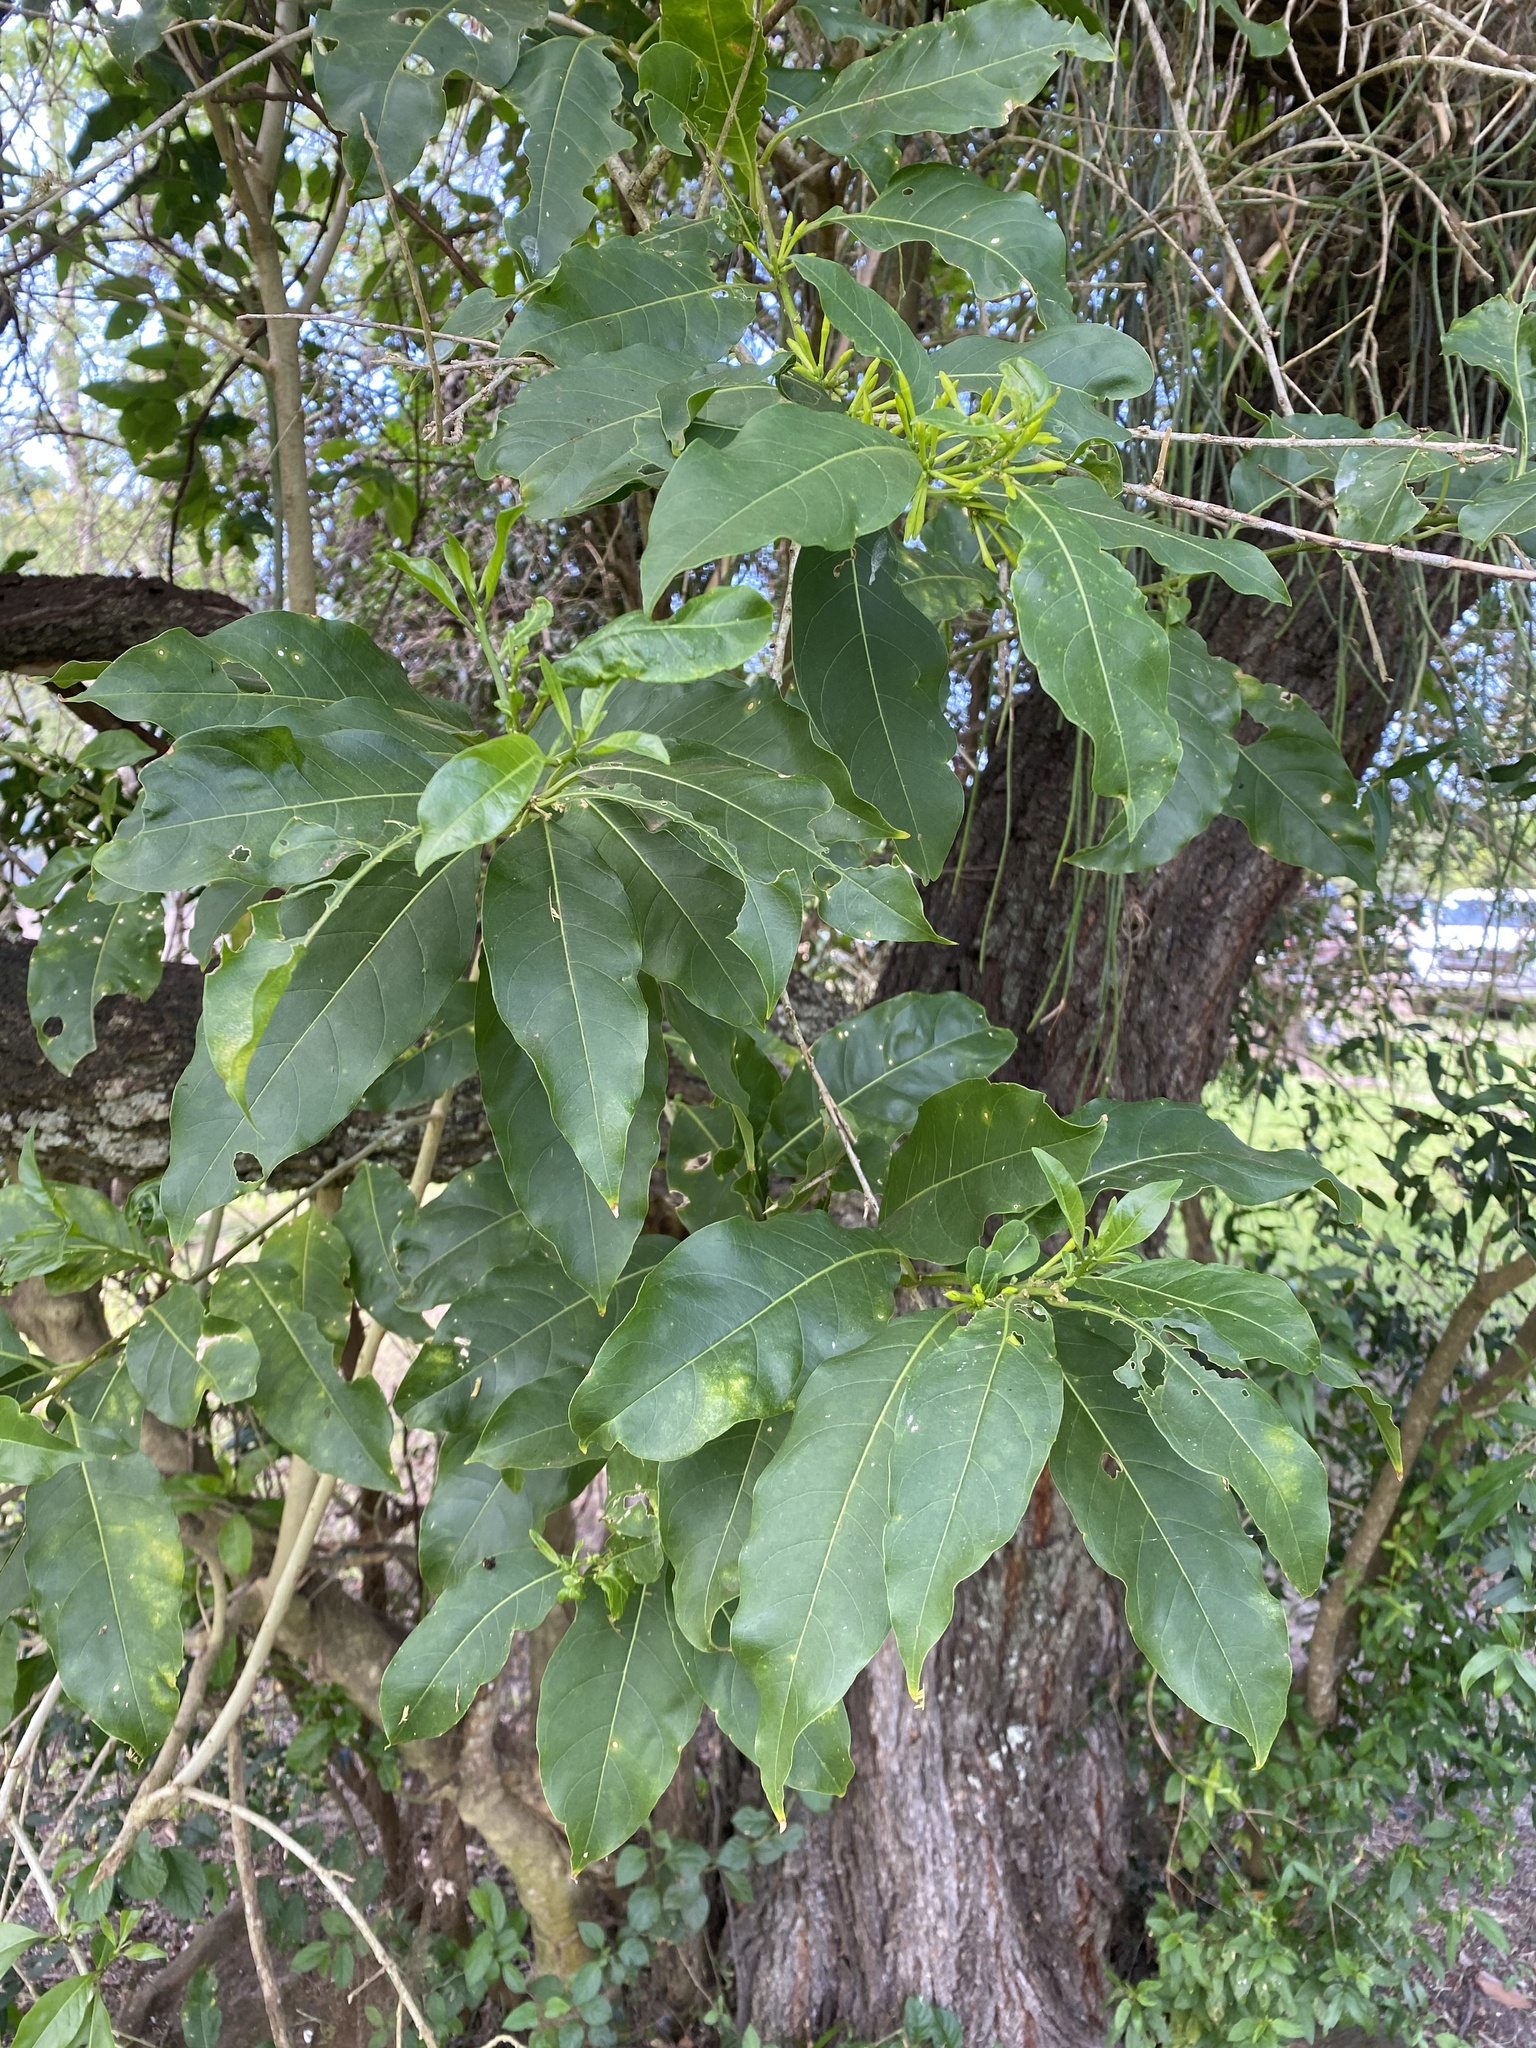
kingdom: Plantae
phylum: Tracheophyta
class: Magnoliopsida
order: Solanales
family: Solanaceae
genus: Cestrum
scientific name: Cestrum laevigatum
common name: Inkberry
